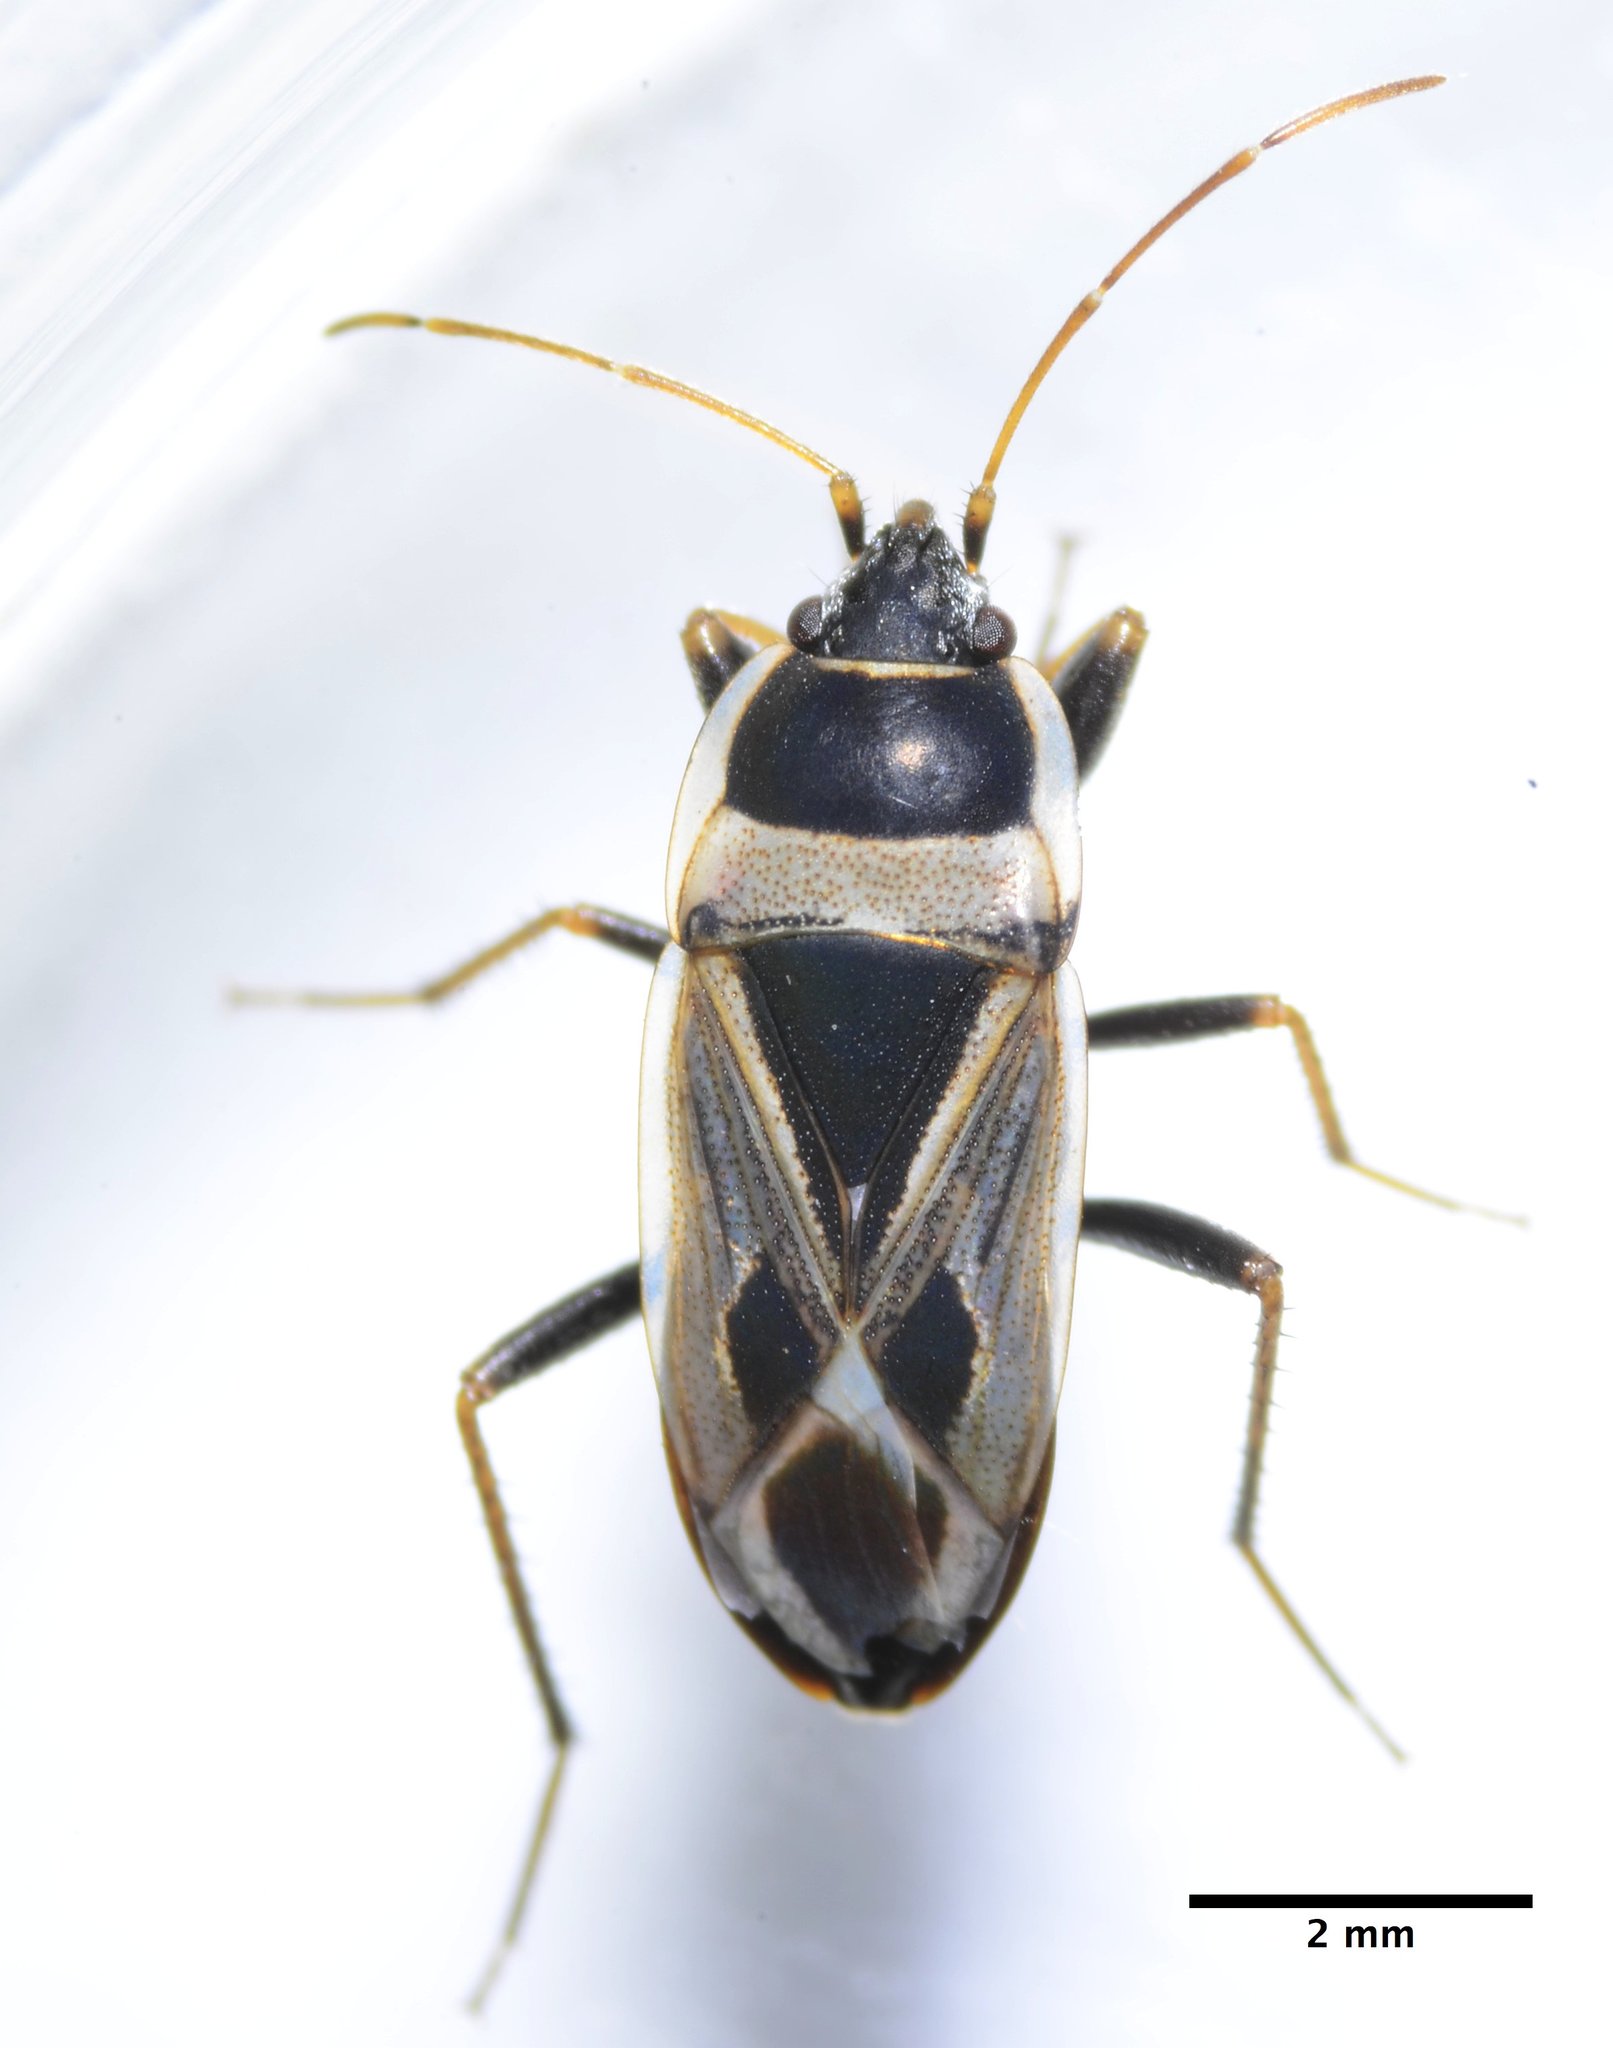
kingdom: Animalia
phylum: Arthropoda
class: Insecta
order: Hemiptera
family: Rhyparochromidae
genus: Xanthochilus
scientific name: Xanthochilus saturnius
